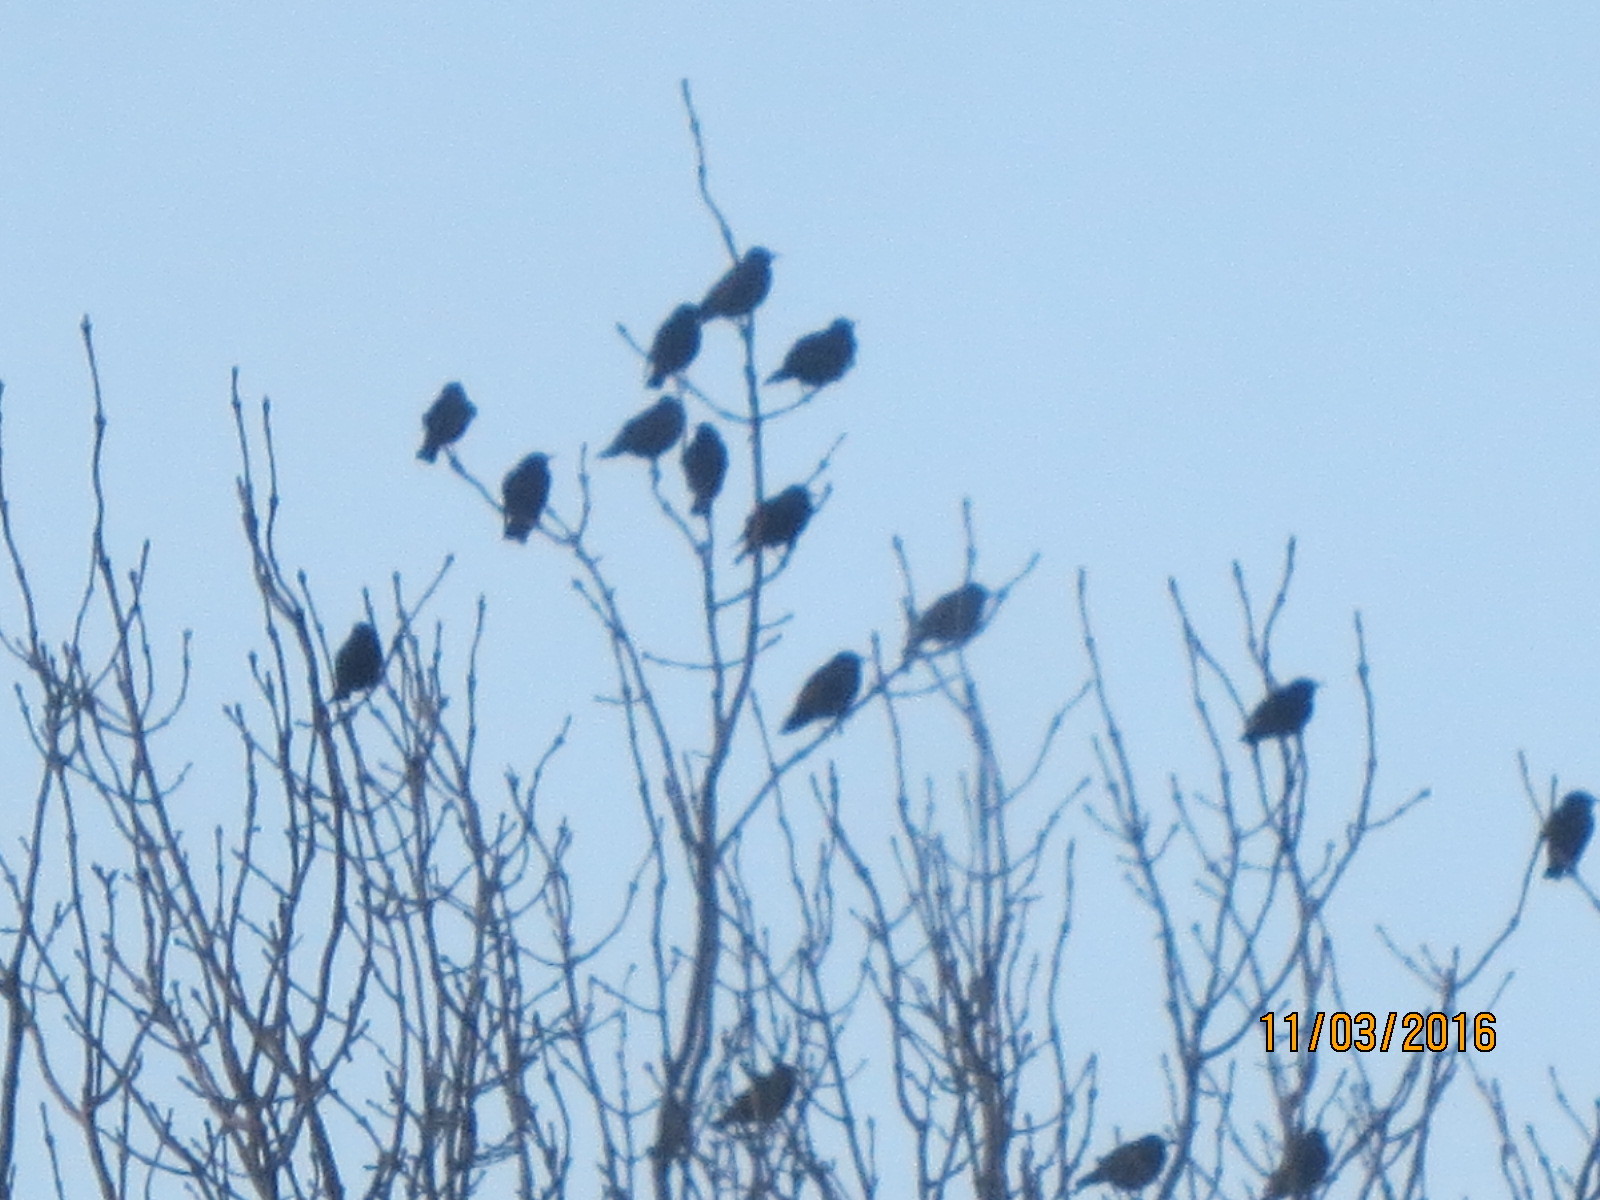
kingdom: Animalia
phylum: Chordata
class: Aves
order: Passeriformes
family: Sturnidae
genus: Sturnus
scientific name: Sturnus vulgaris
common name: Common starling
